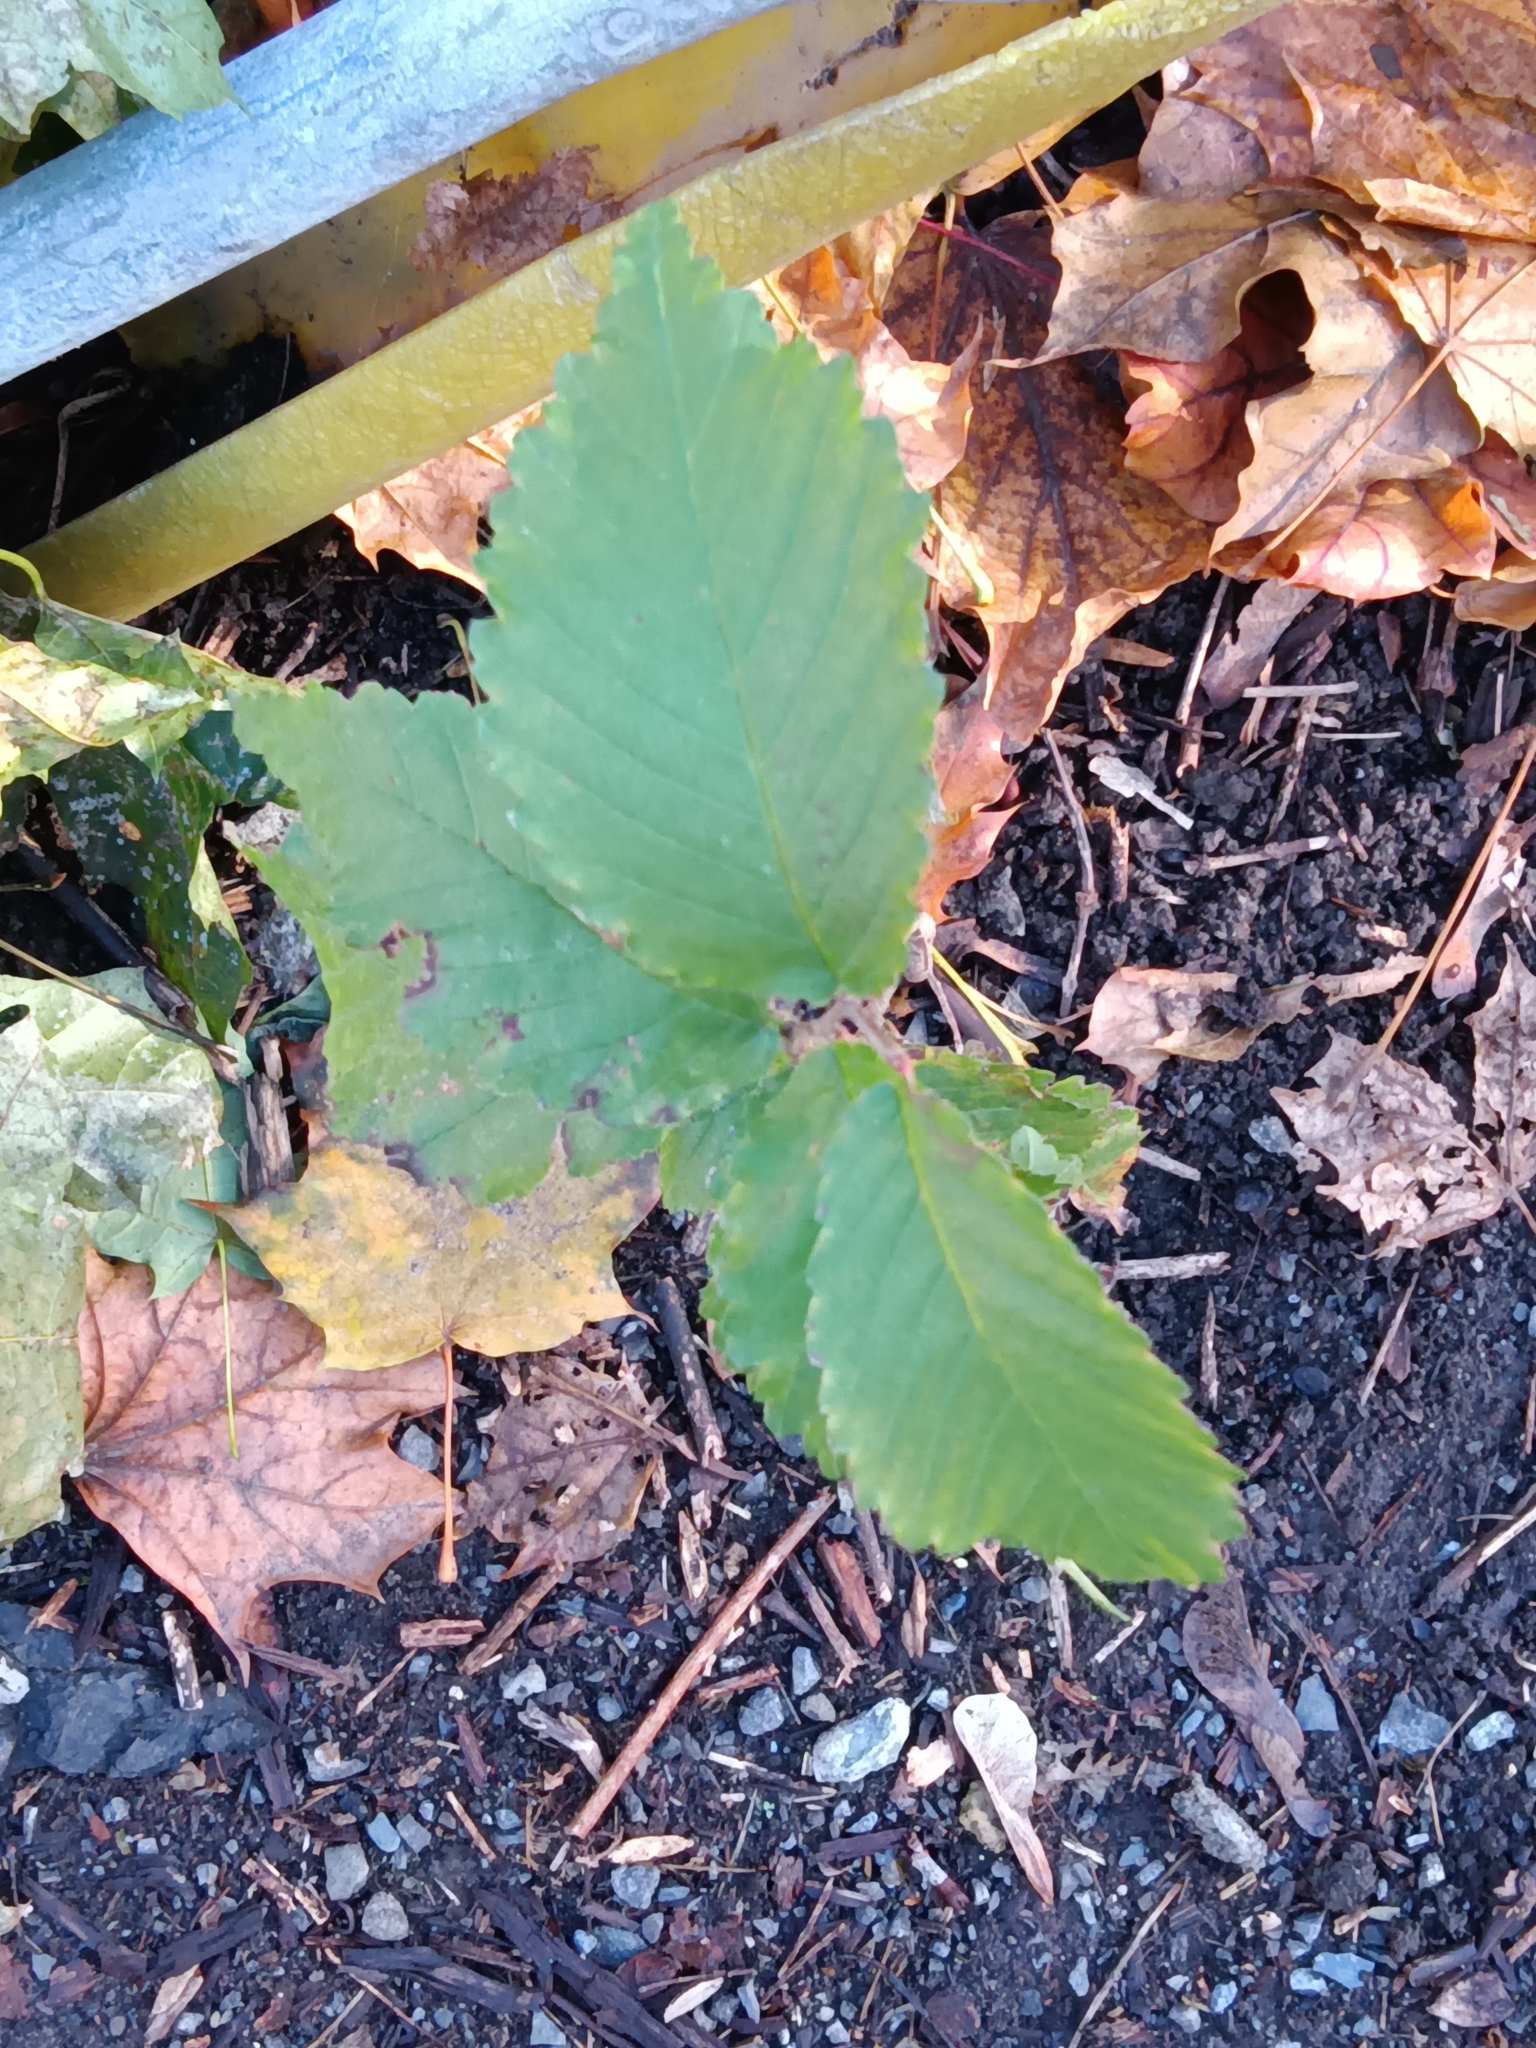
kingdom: Plantae
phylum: Tracheophyta
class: Magnoliopsida
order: Rosales
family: Ulmaceae
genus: Ulmus
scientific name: Ulmus americana
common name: American elm
